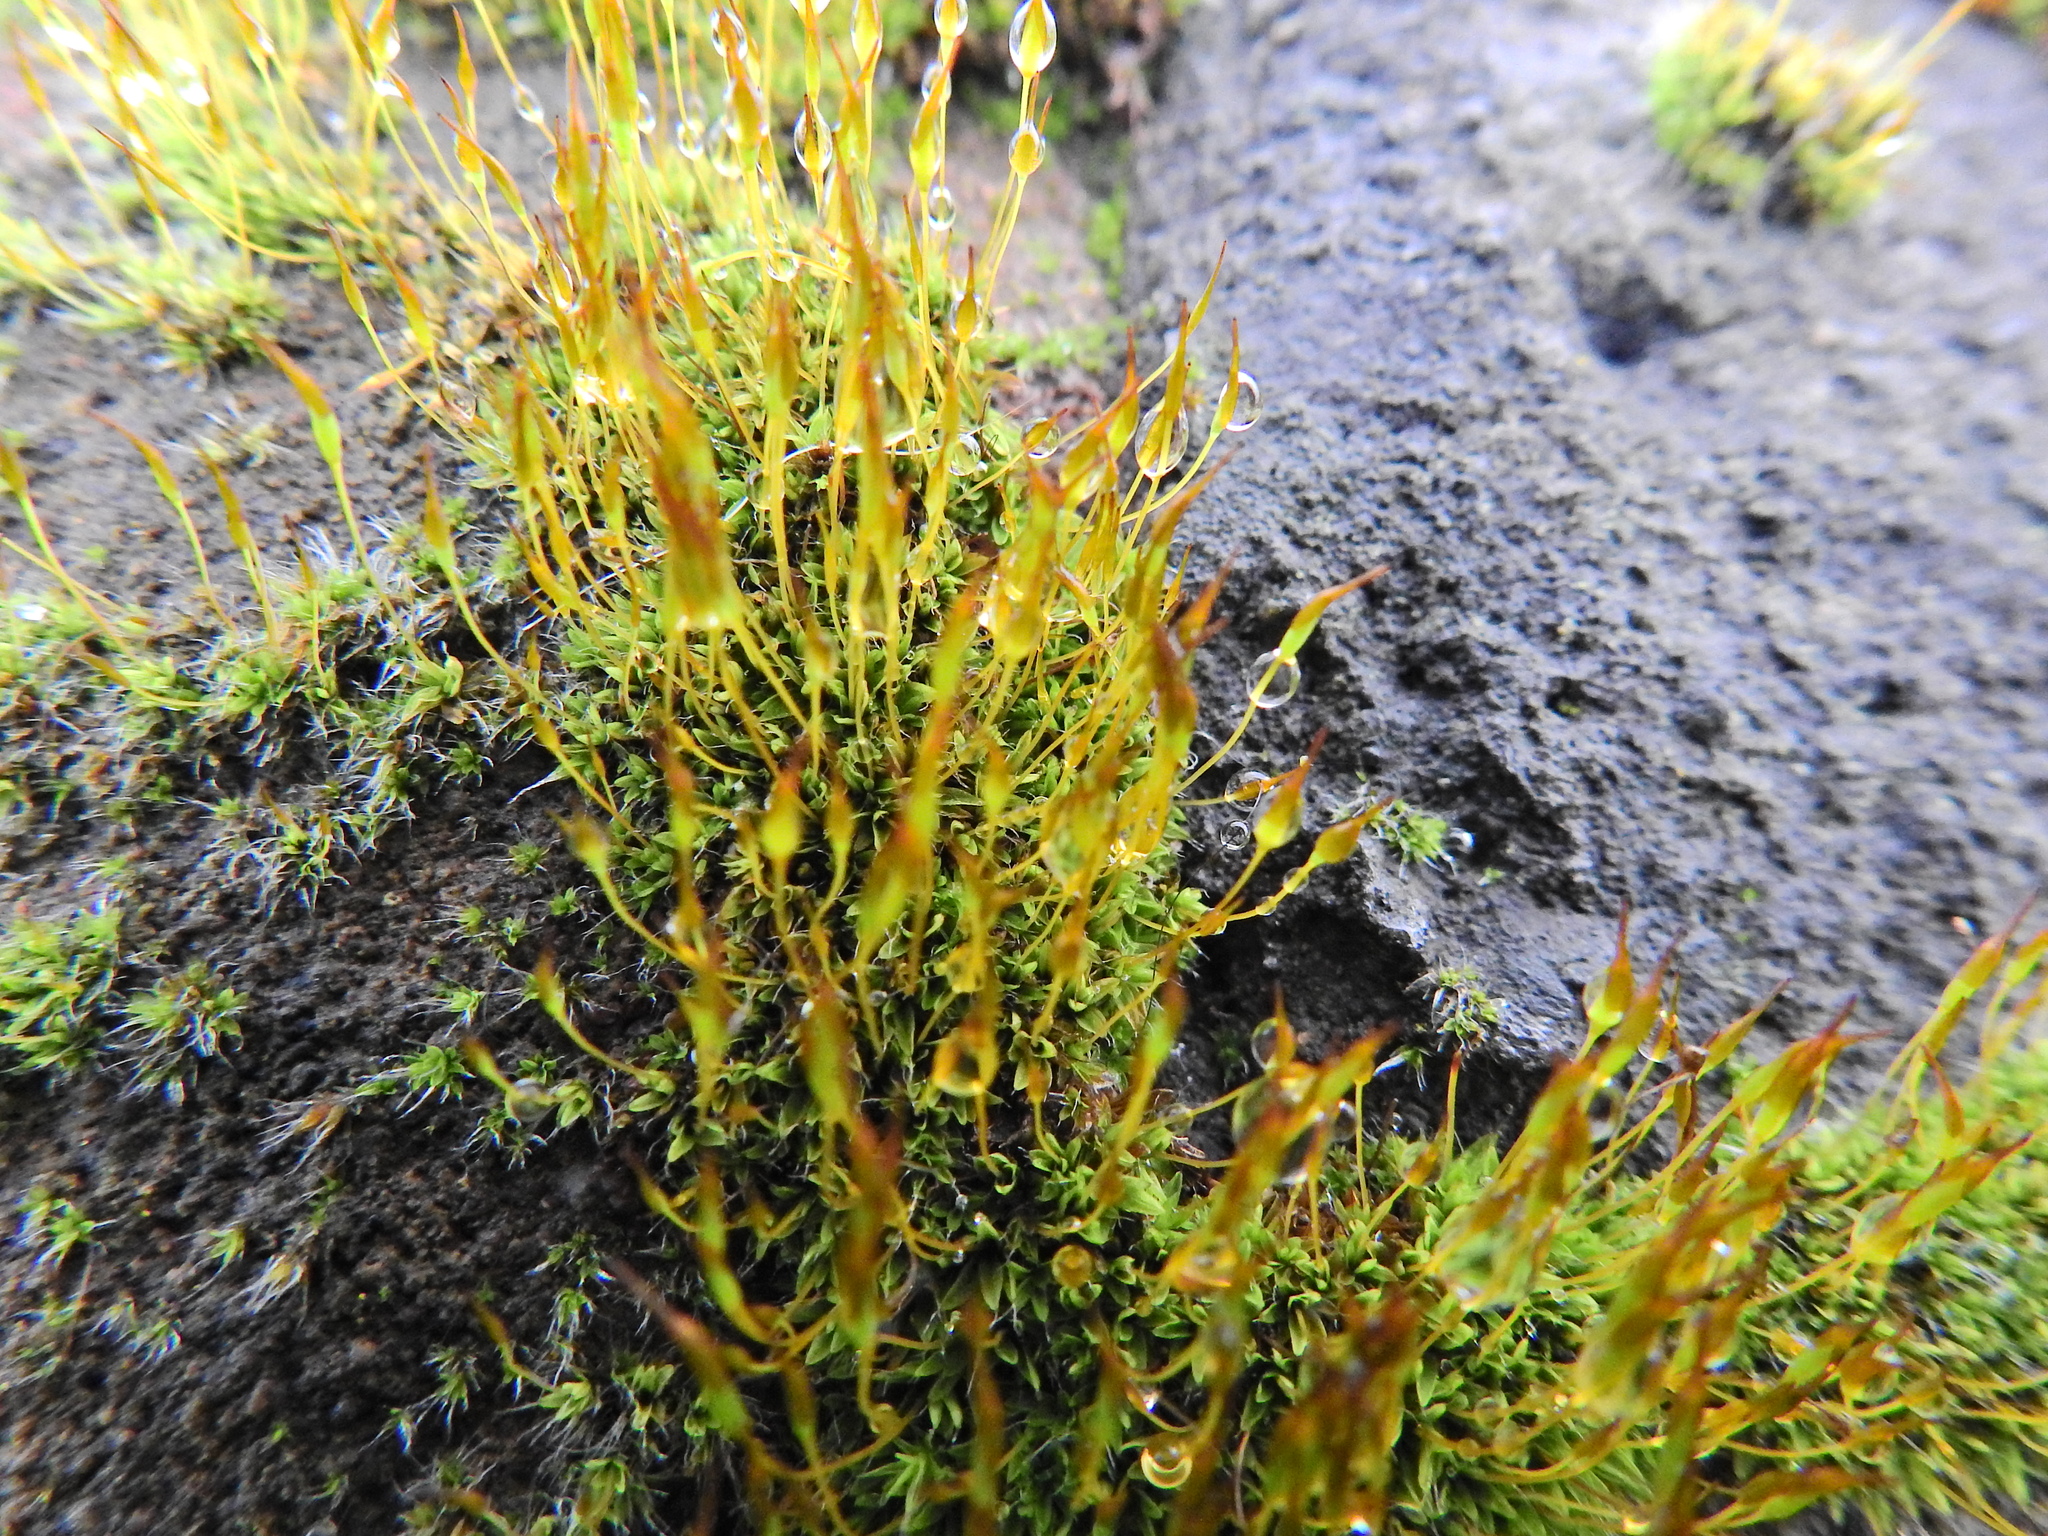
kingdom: Plantae
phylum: Bryophyta
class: Bryopsida
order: Pottiales
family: Pottiaceae
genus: Tortula
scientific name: Tortula muralis
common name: Wall screw-moss
